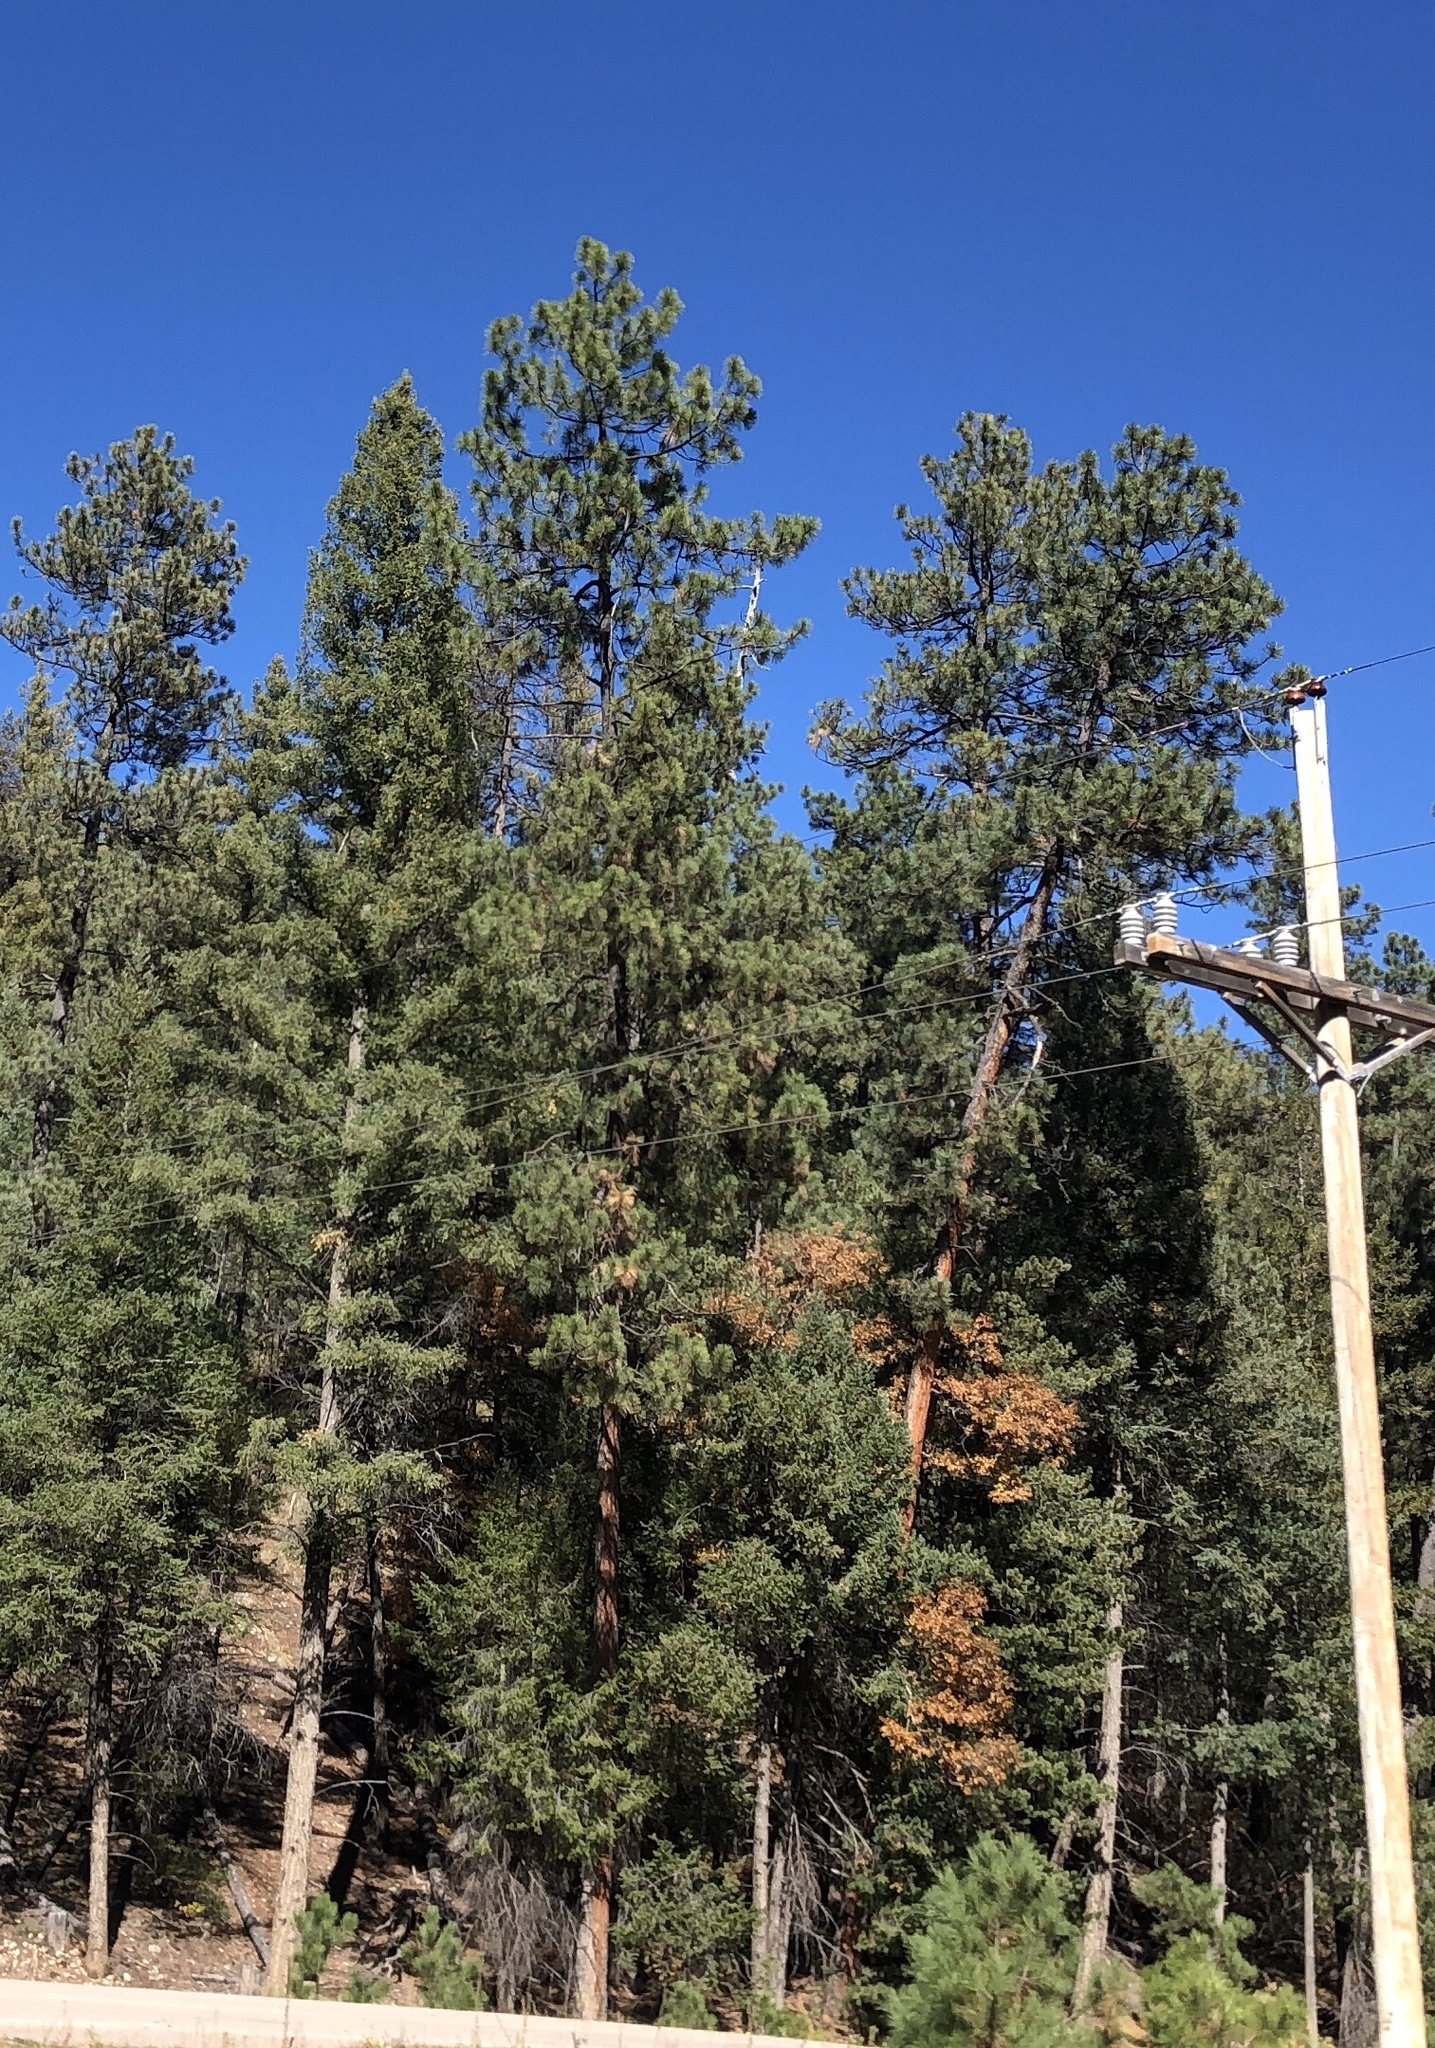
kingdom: Plantae
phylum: Tracheophyta
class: Pinopsida
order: Pinales
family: Pinaceae
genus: Pinus
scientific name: Pinus ponderosa
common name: Western yellow-pine
